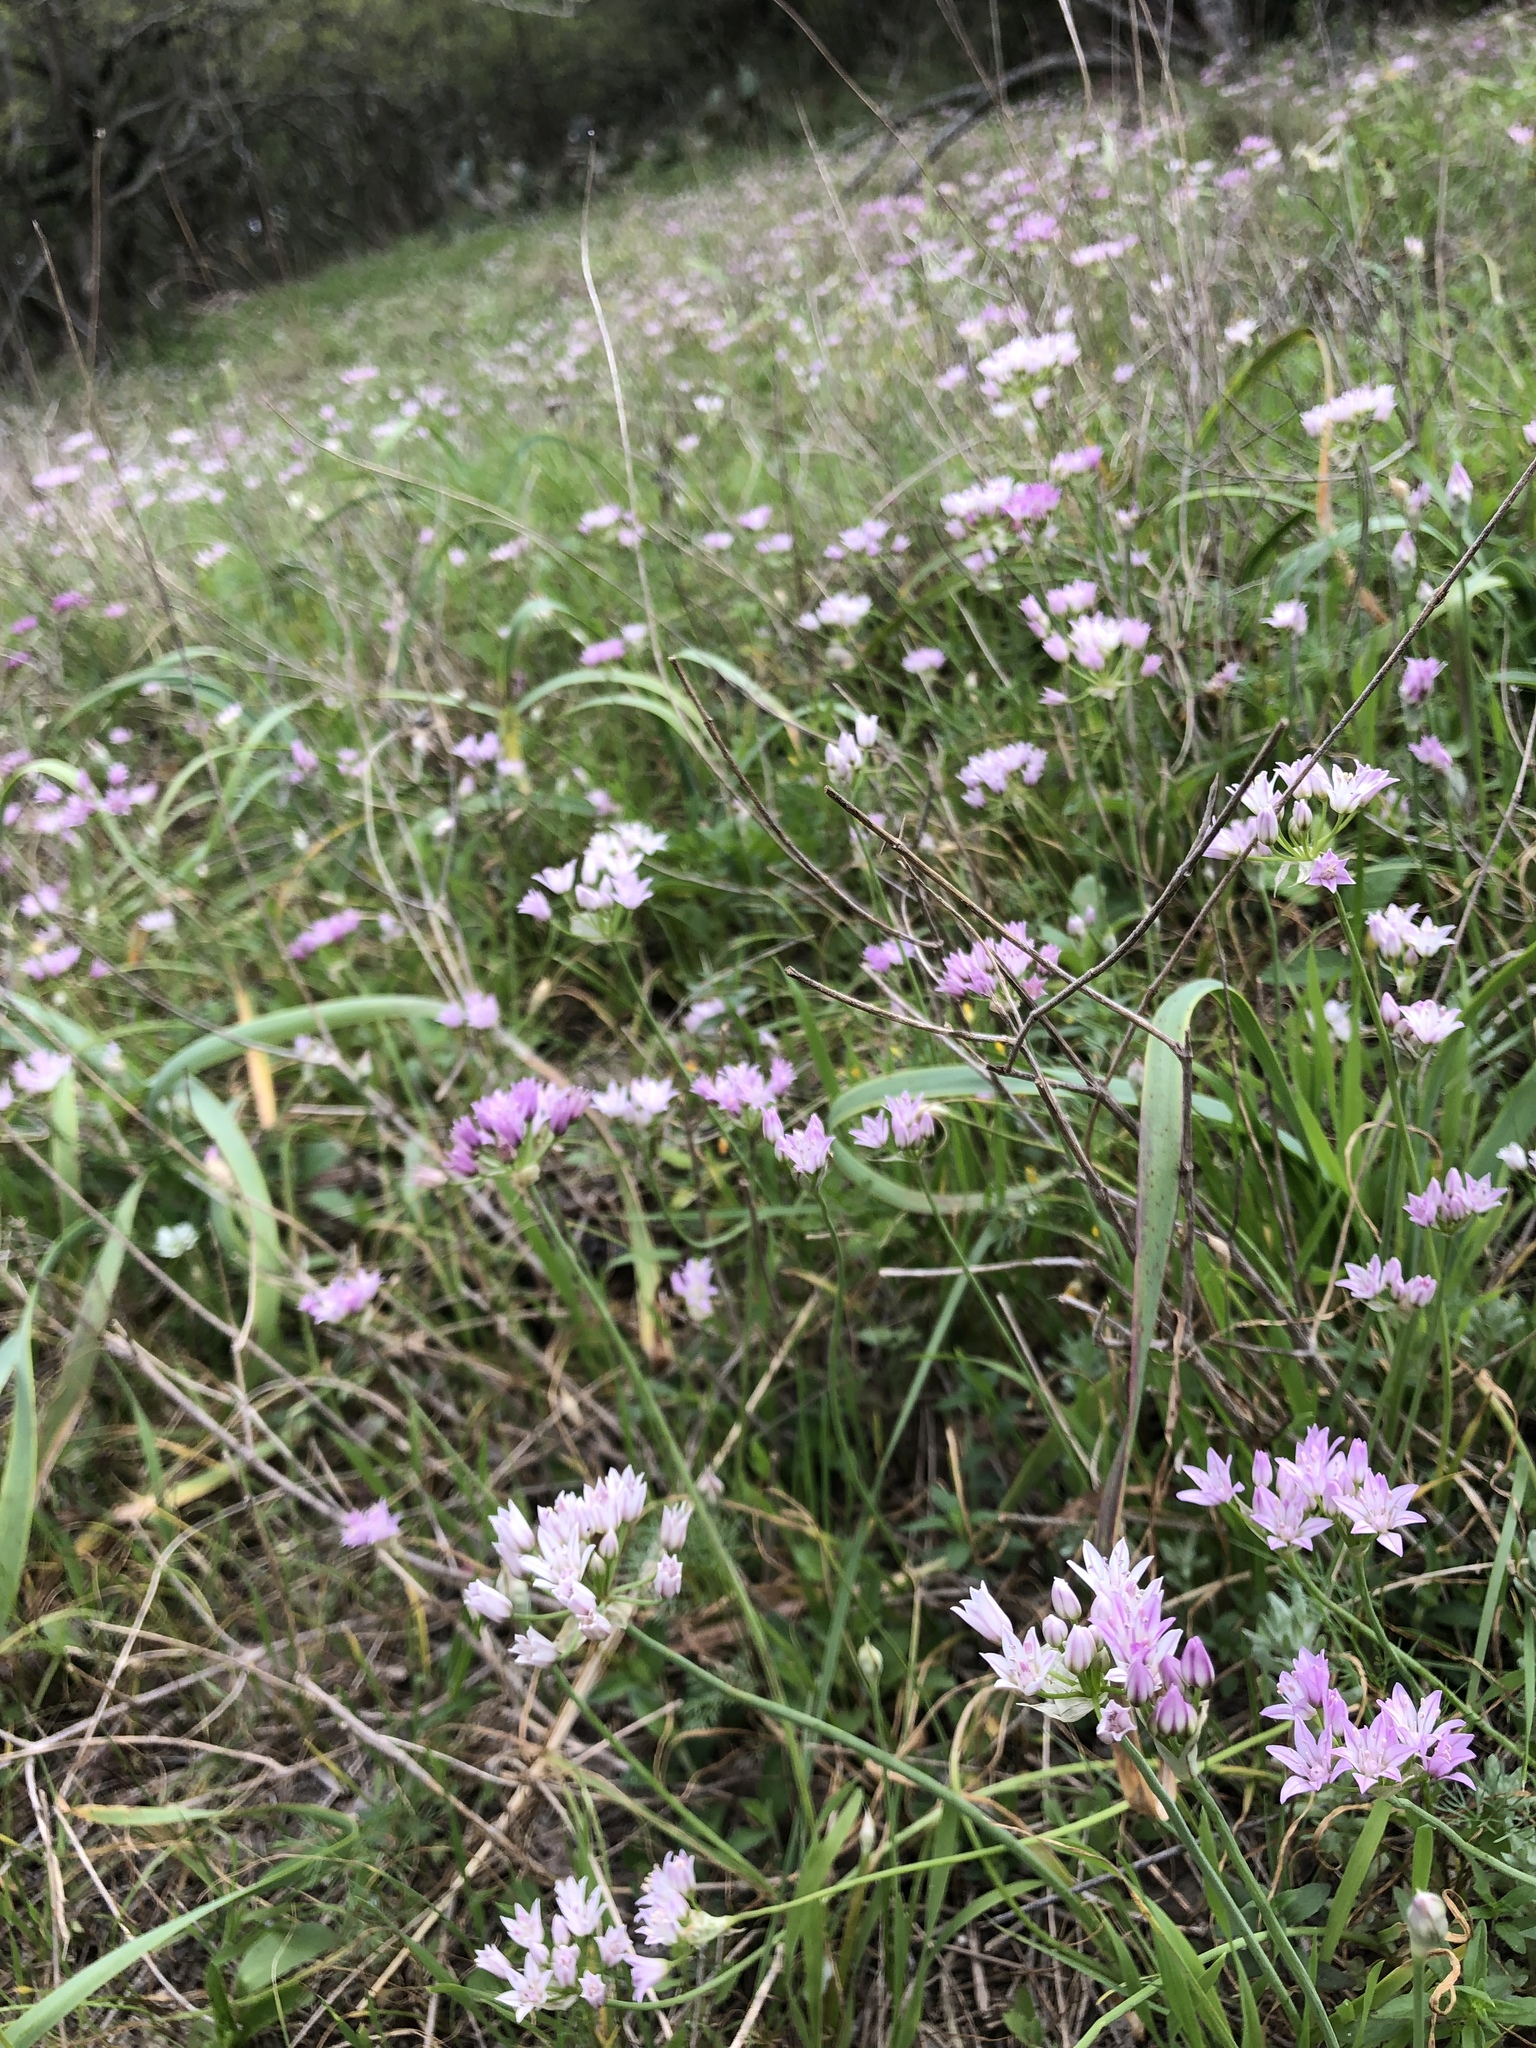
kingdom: Plantae
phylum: Tracheophyta
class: Liliopsida
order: Asparagales
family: Amaryllidaceae
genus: Allium
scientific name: Allium drummondii
